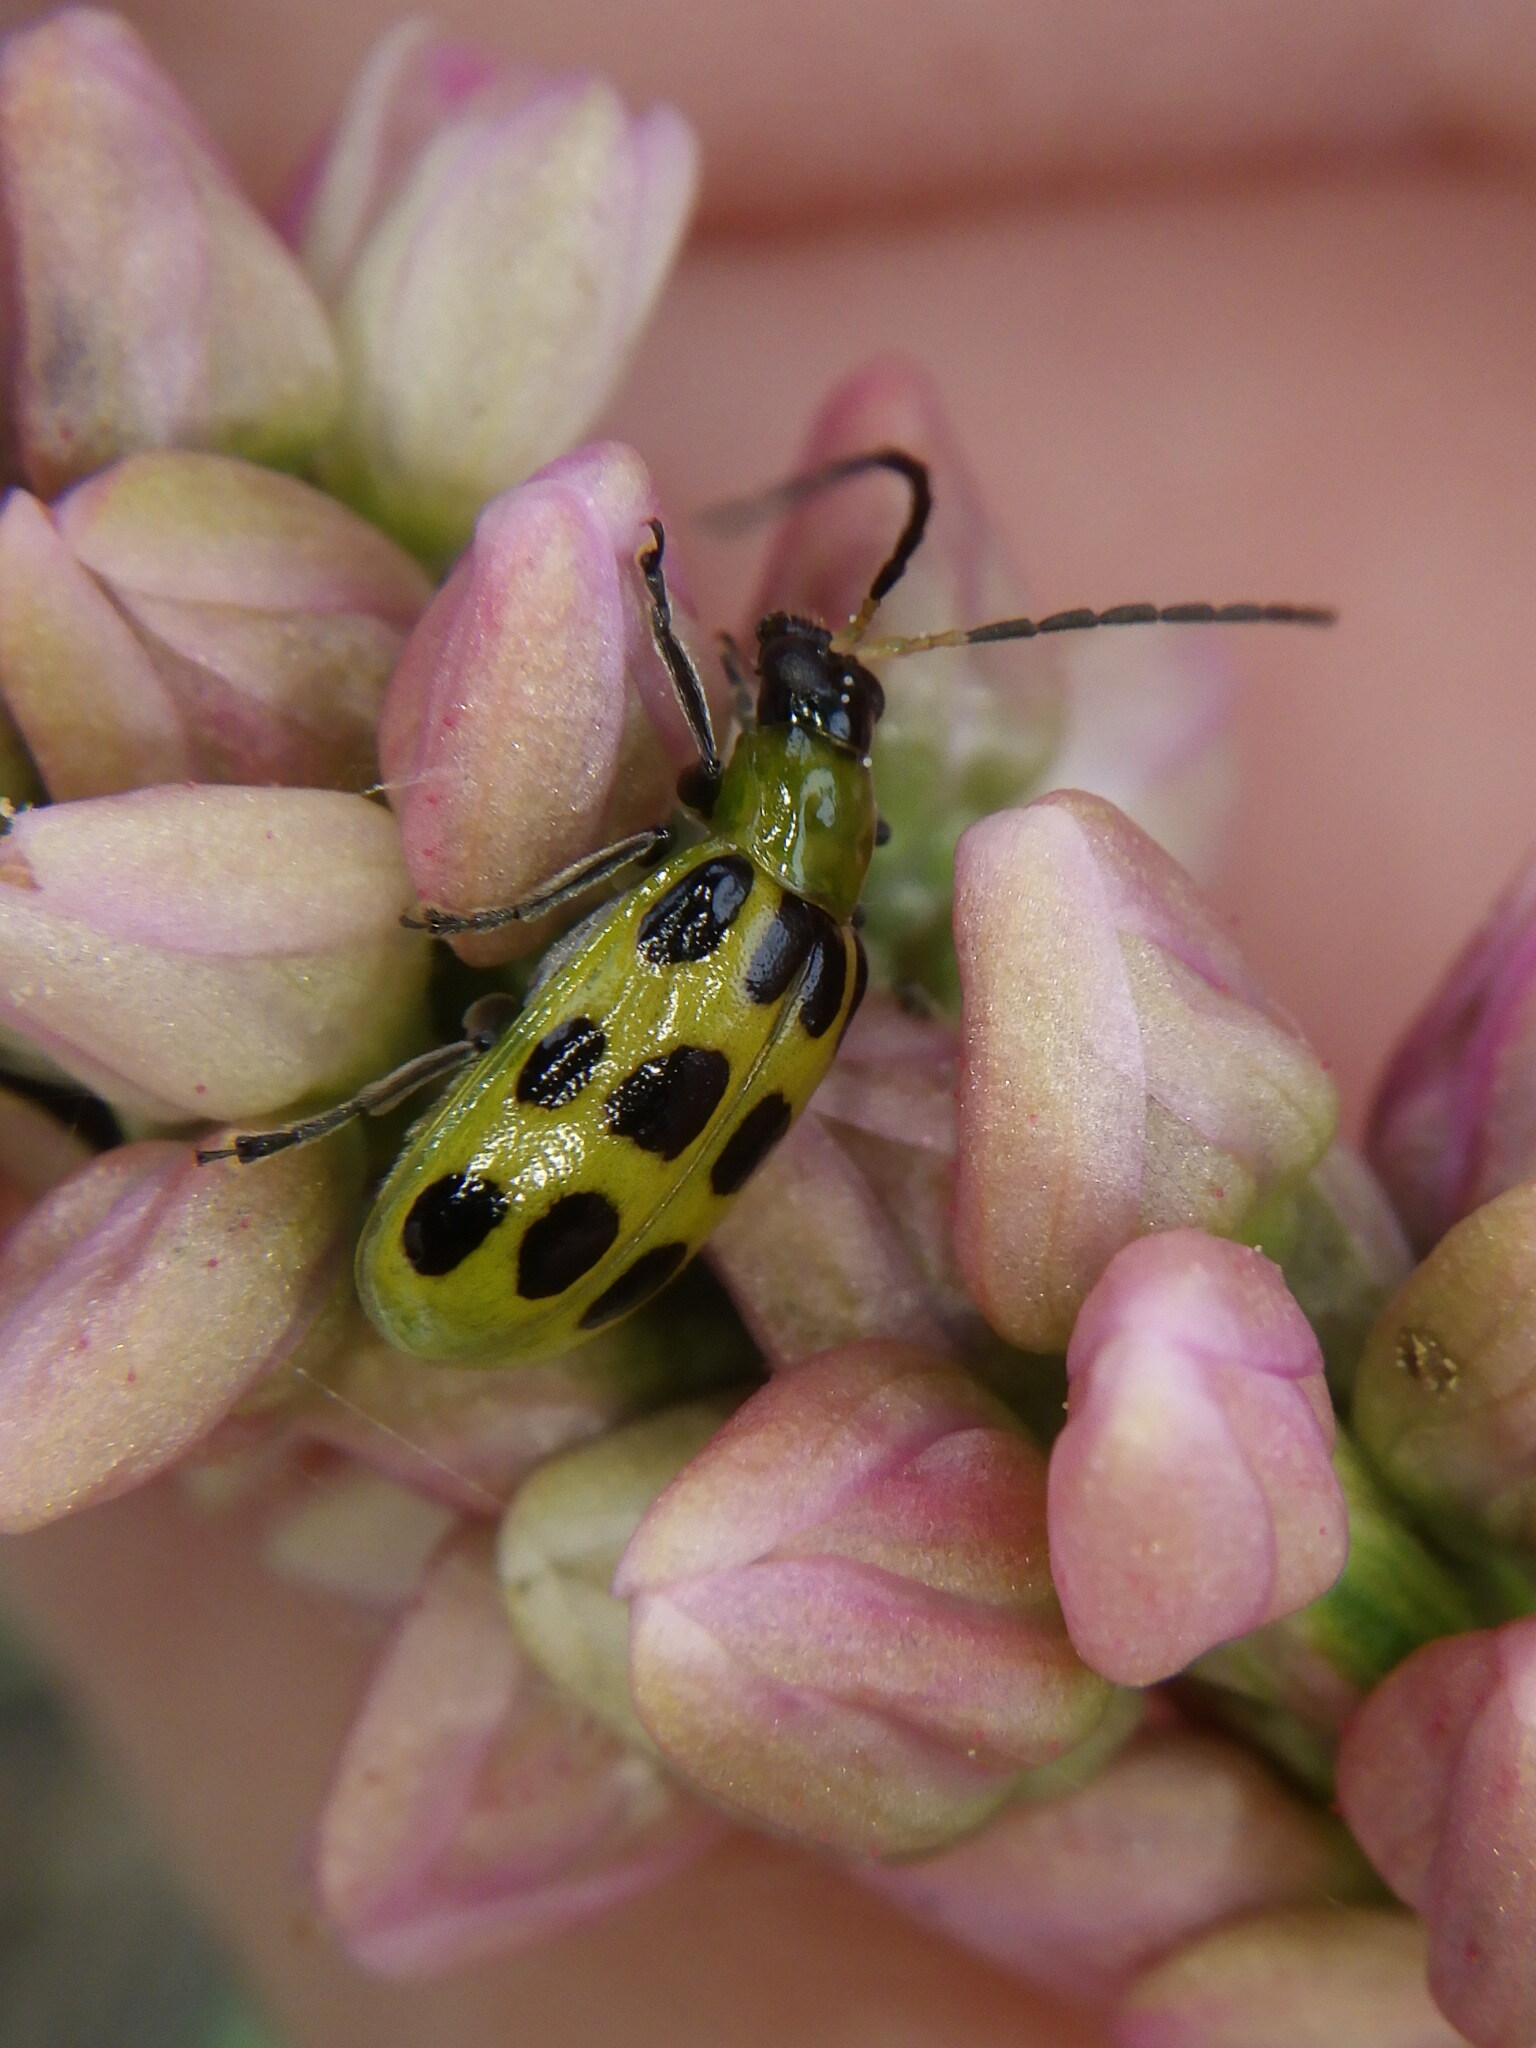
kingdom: Animalia
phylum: Arthropoda
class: Insecta
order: Coleoptera
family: Chrysomelidae
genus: Diabrotica
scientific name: Diabrotica undecimpunctata
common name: Spotted cucumber beetle
